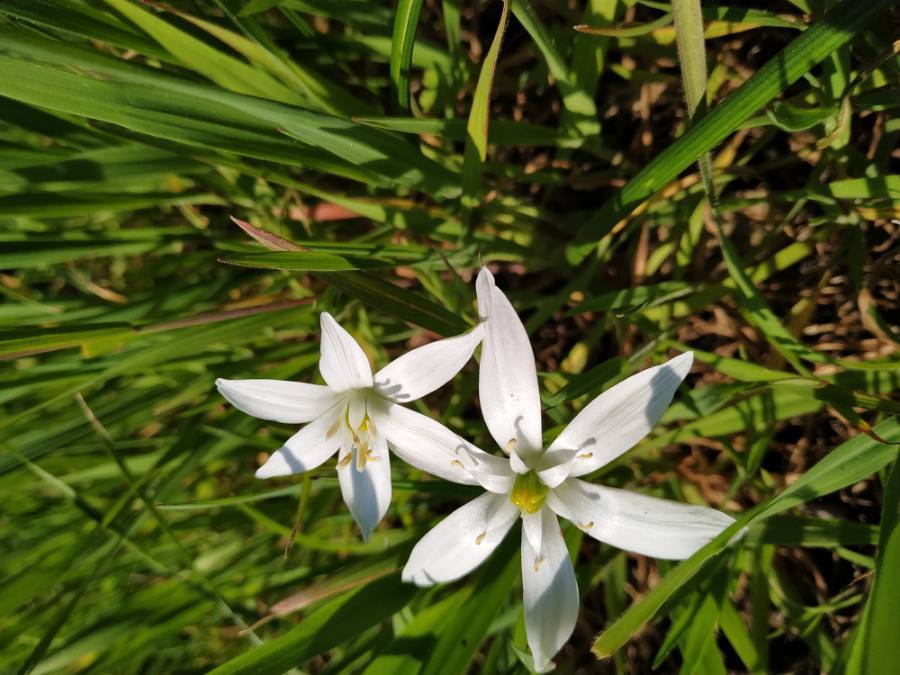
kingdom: Plantae
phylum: Tracheophyta
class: Liliopsida
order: Asparagales
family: Asparagaceae
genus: Ornithogalum
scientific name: Ornithogalum umbellatum
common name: Garden star-of-bethlehem
